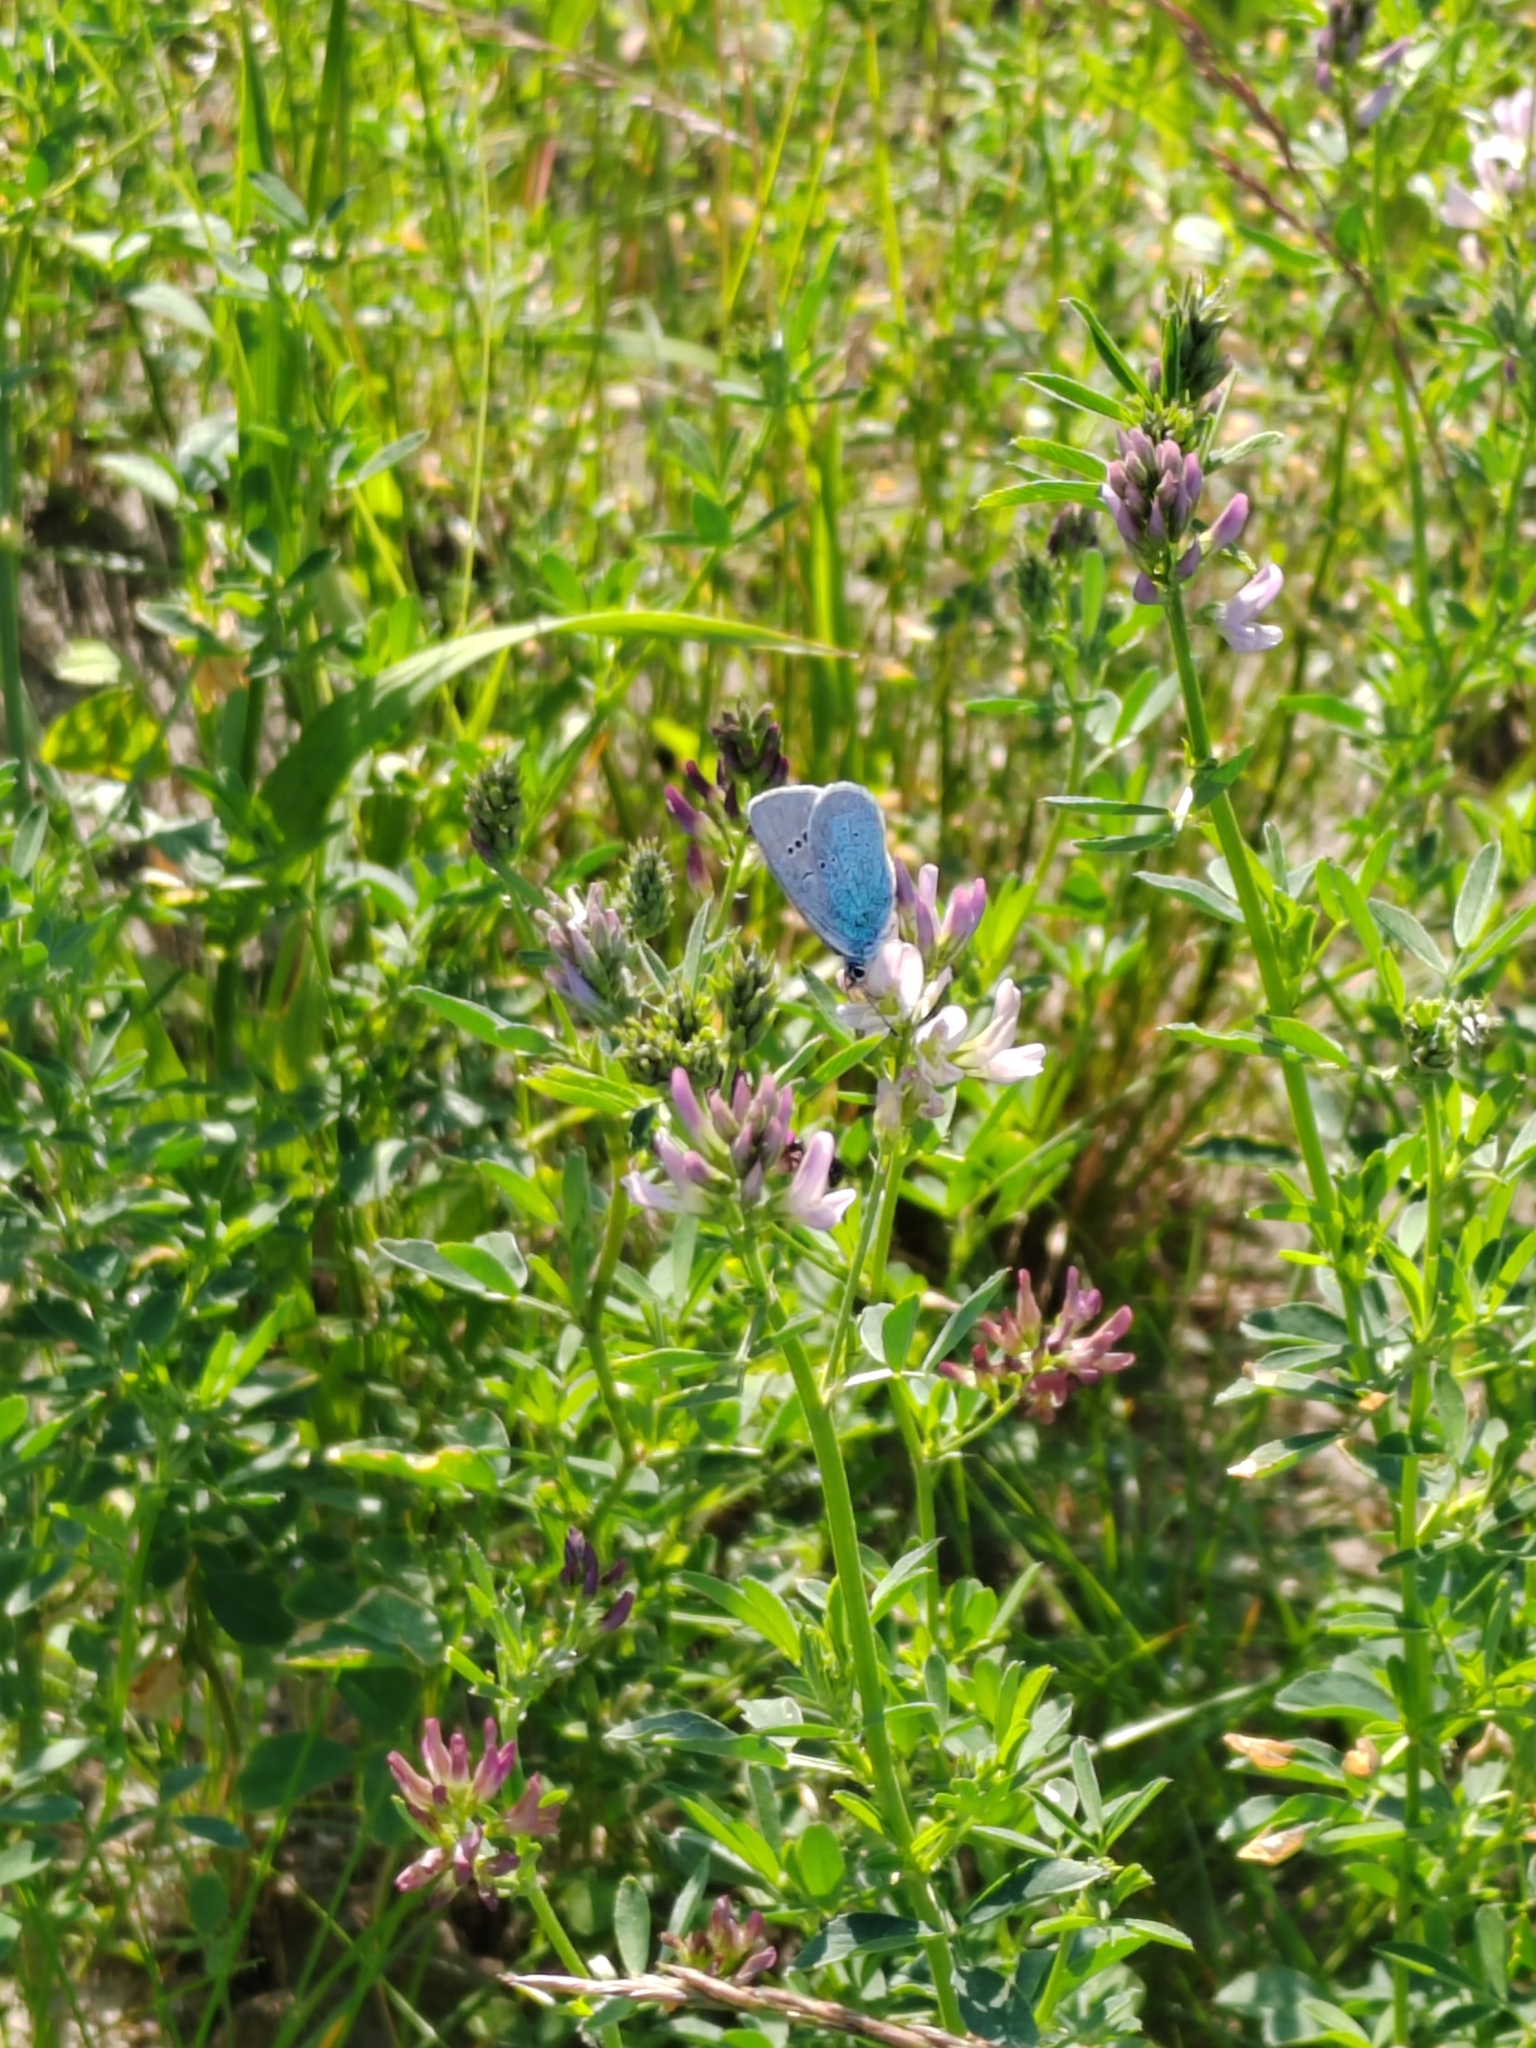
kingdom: Animalia
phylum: Arthropoda
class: Insecta
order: Lepidoptera
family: Lycaenidae
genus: Glaucopsyche
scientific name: Glaucopsyche alexis
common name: Green-underside blue
